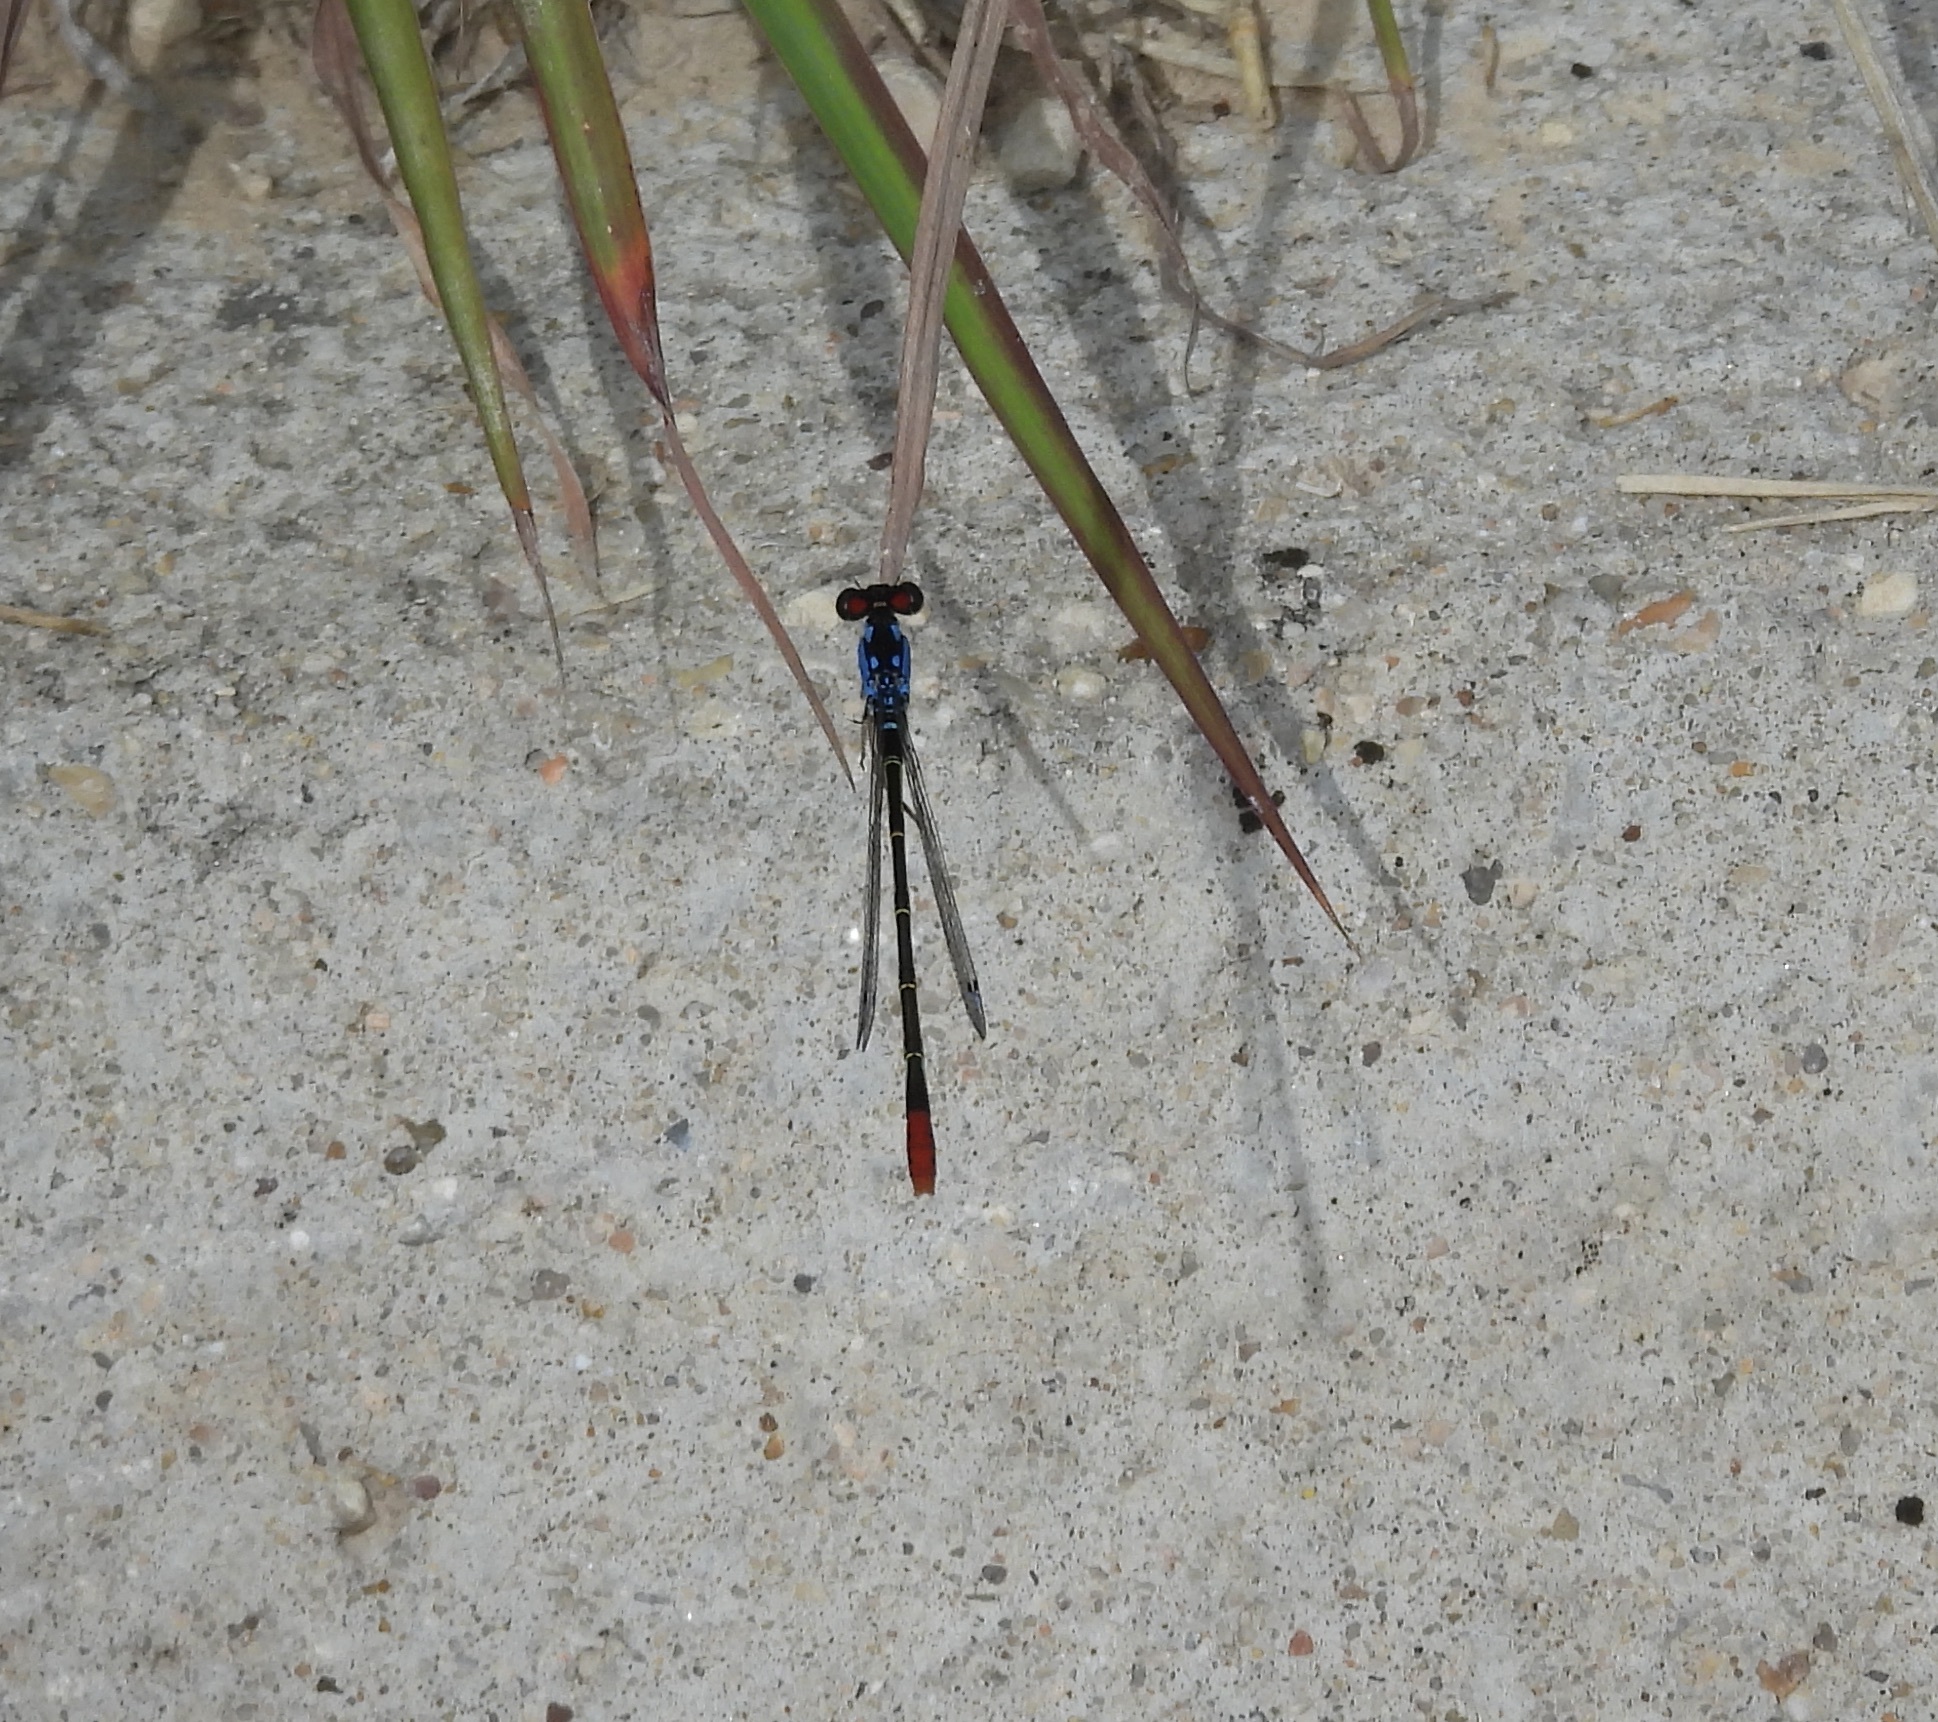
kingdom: Animalia
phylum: Arthropoda
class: Insecta
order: Odonata
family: Coenagrionidae
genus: Hesperagrion
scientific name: Hesperagrion heterodoxum
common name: Painted damsel
